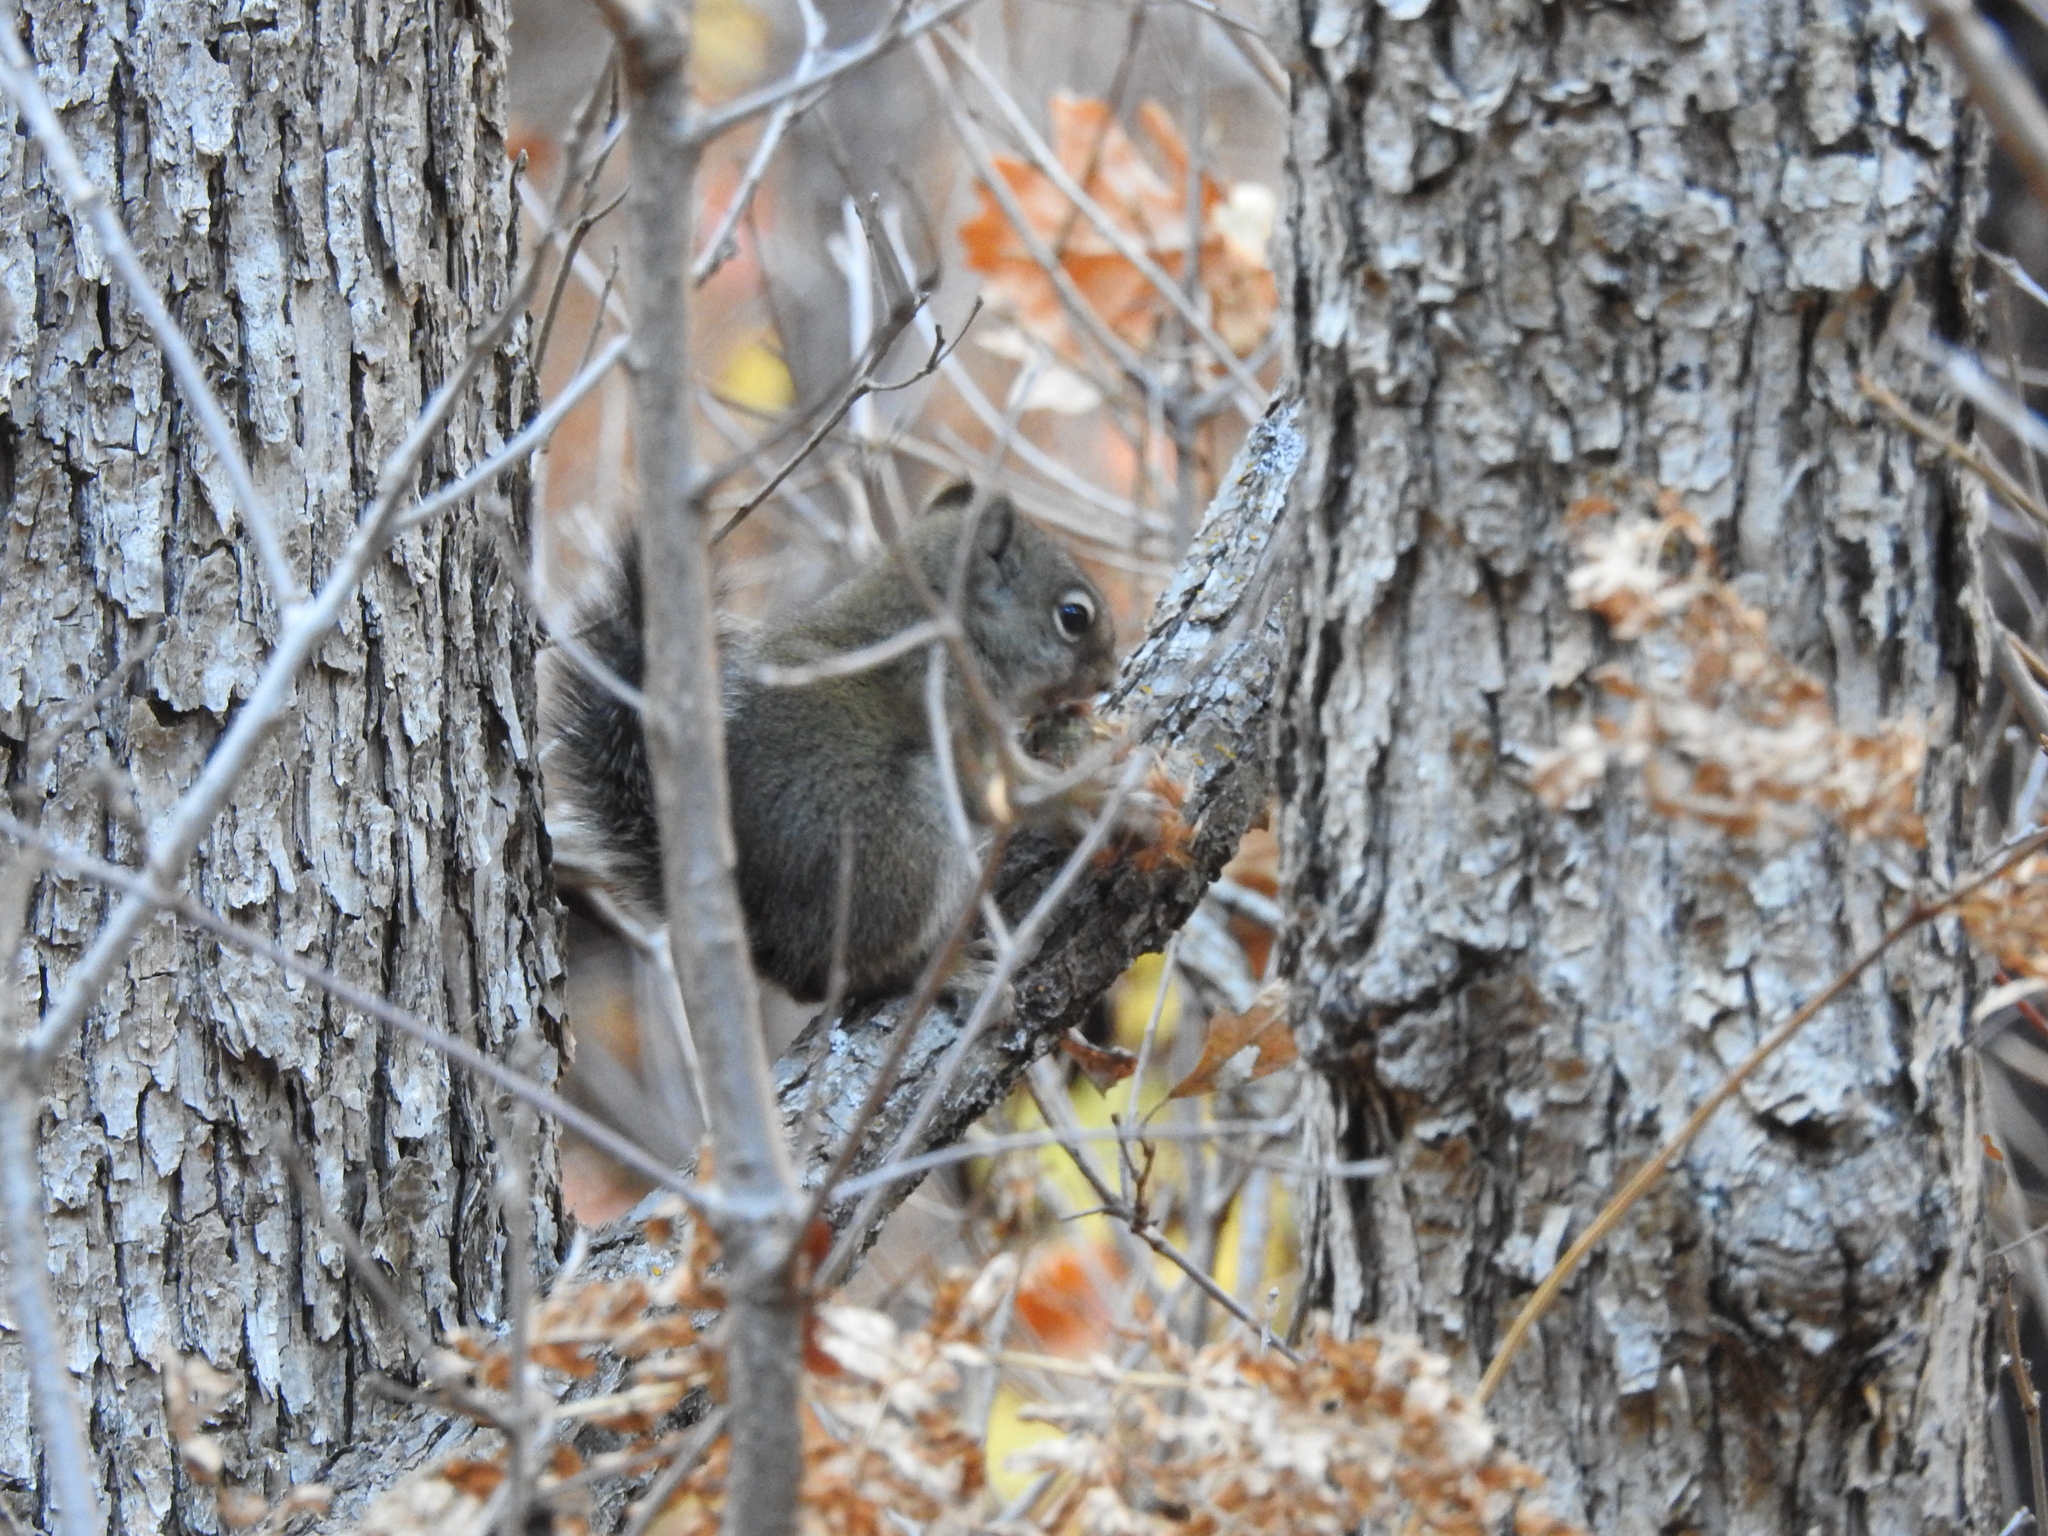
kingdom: Animalia
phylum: Chordata
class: Mammalia
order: Rodentia
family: Sciuridae
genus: Tamiasciurus
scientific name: Tamiasciurus hudsonicus
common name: Red squirrel
